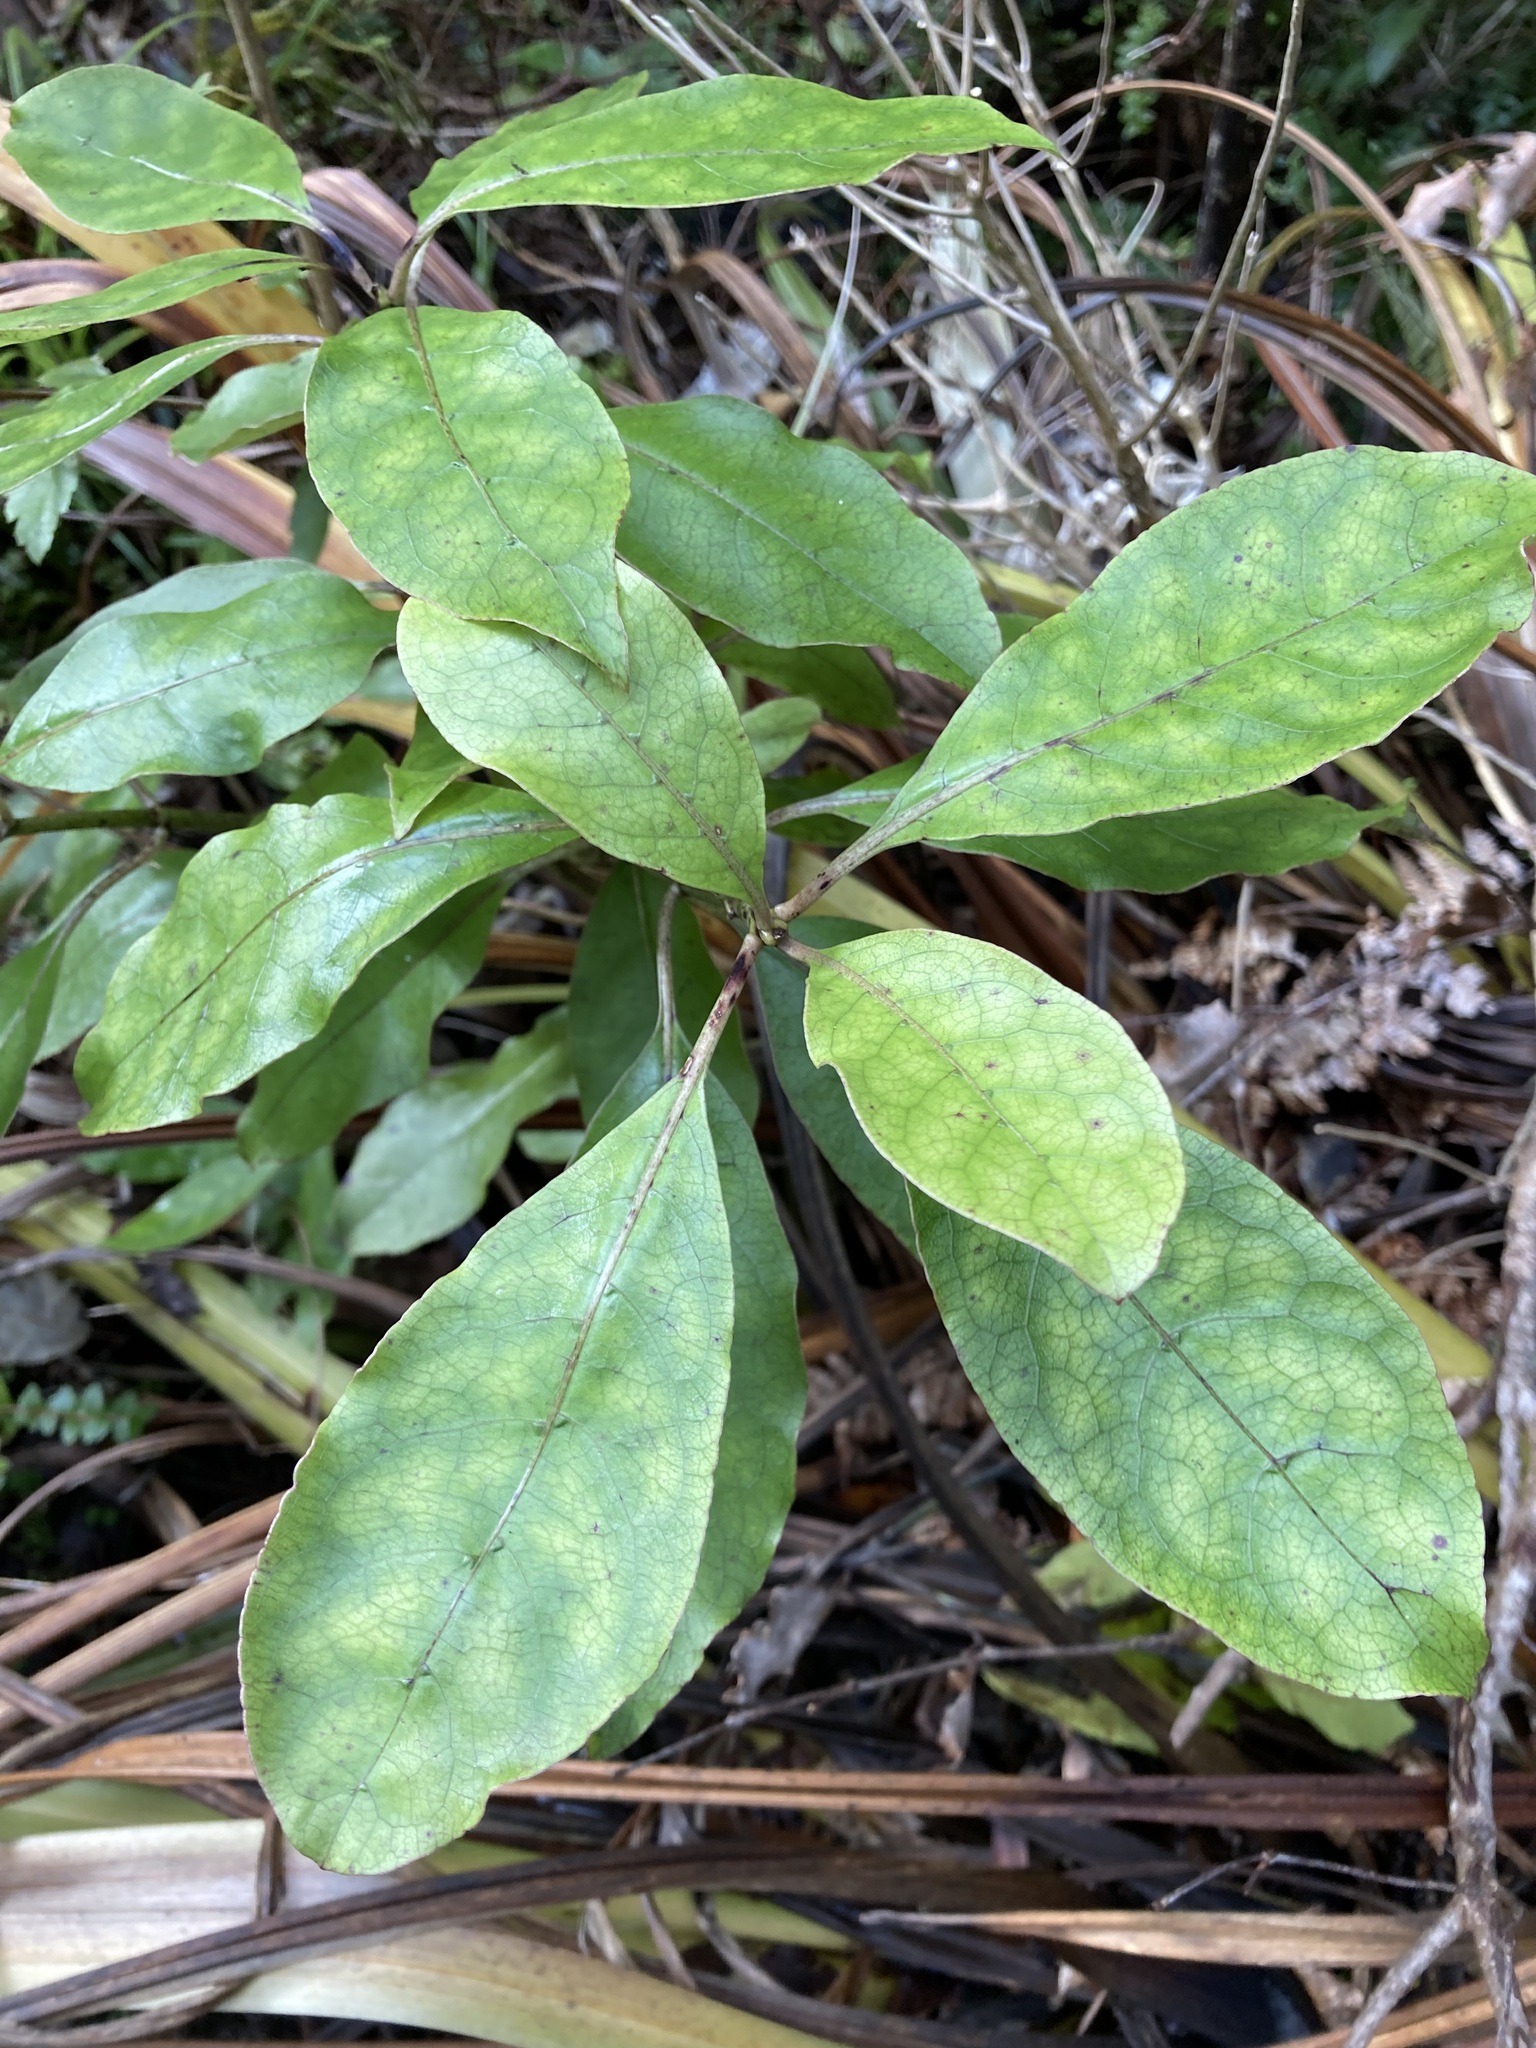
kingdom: Plantae
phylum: Tracheophyta
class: Magnoliopsida
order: Gentianales
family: Rubiaceae
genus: Coprosma
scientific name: Coprosma autumnalis
